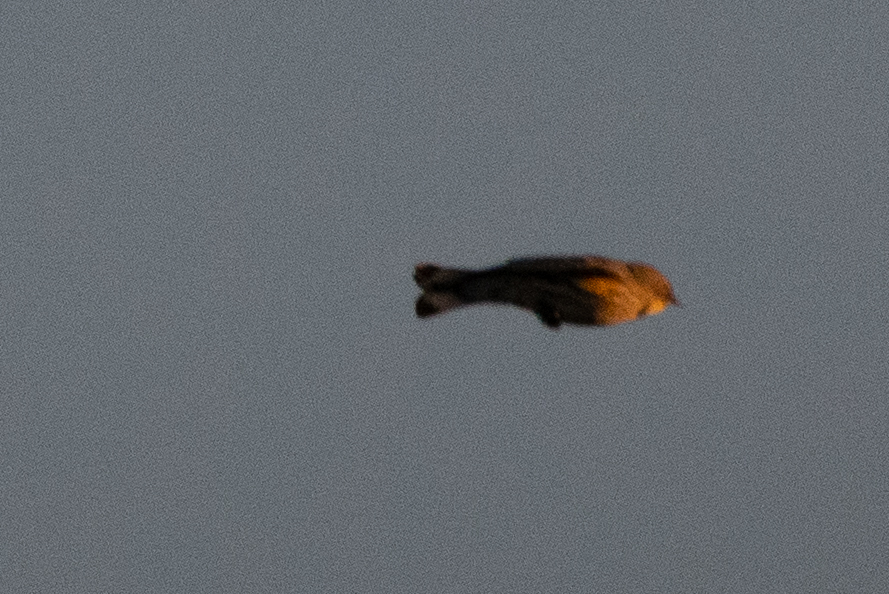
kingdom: Animalia
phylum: Chordata
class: Aves
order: Passeriformes
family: Parulidae
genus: Setophaga
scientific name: Setophaga coronata
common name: Myrtle warbler
